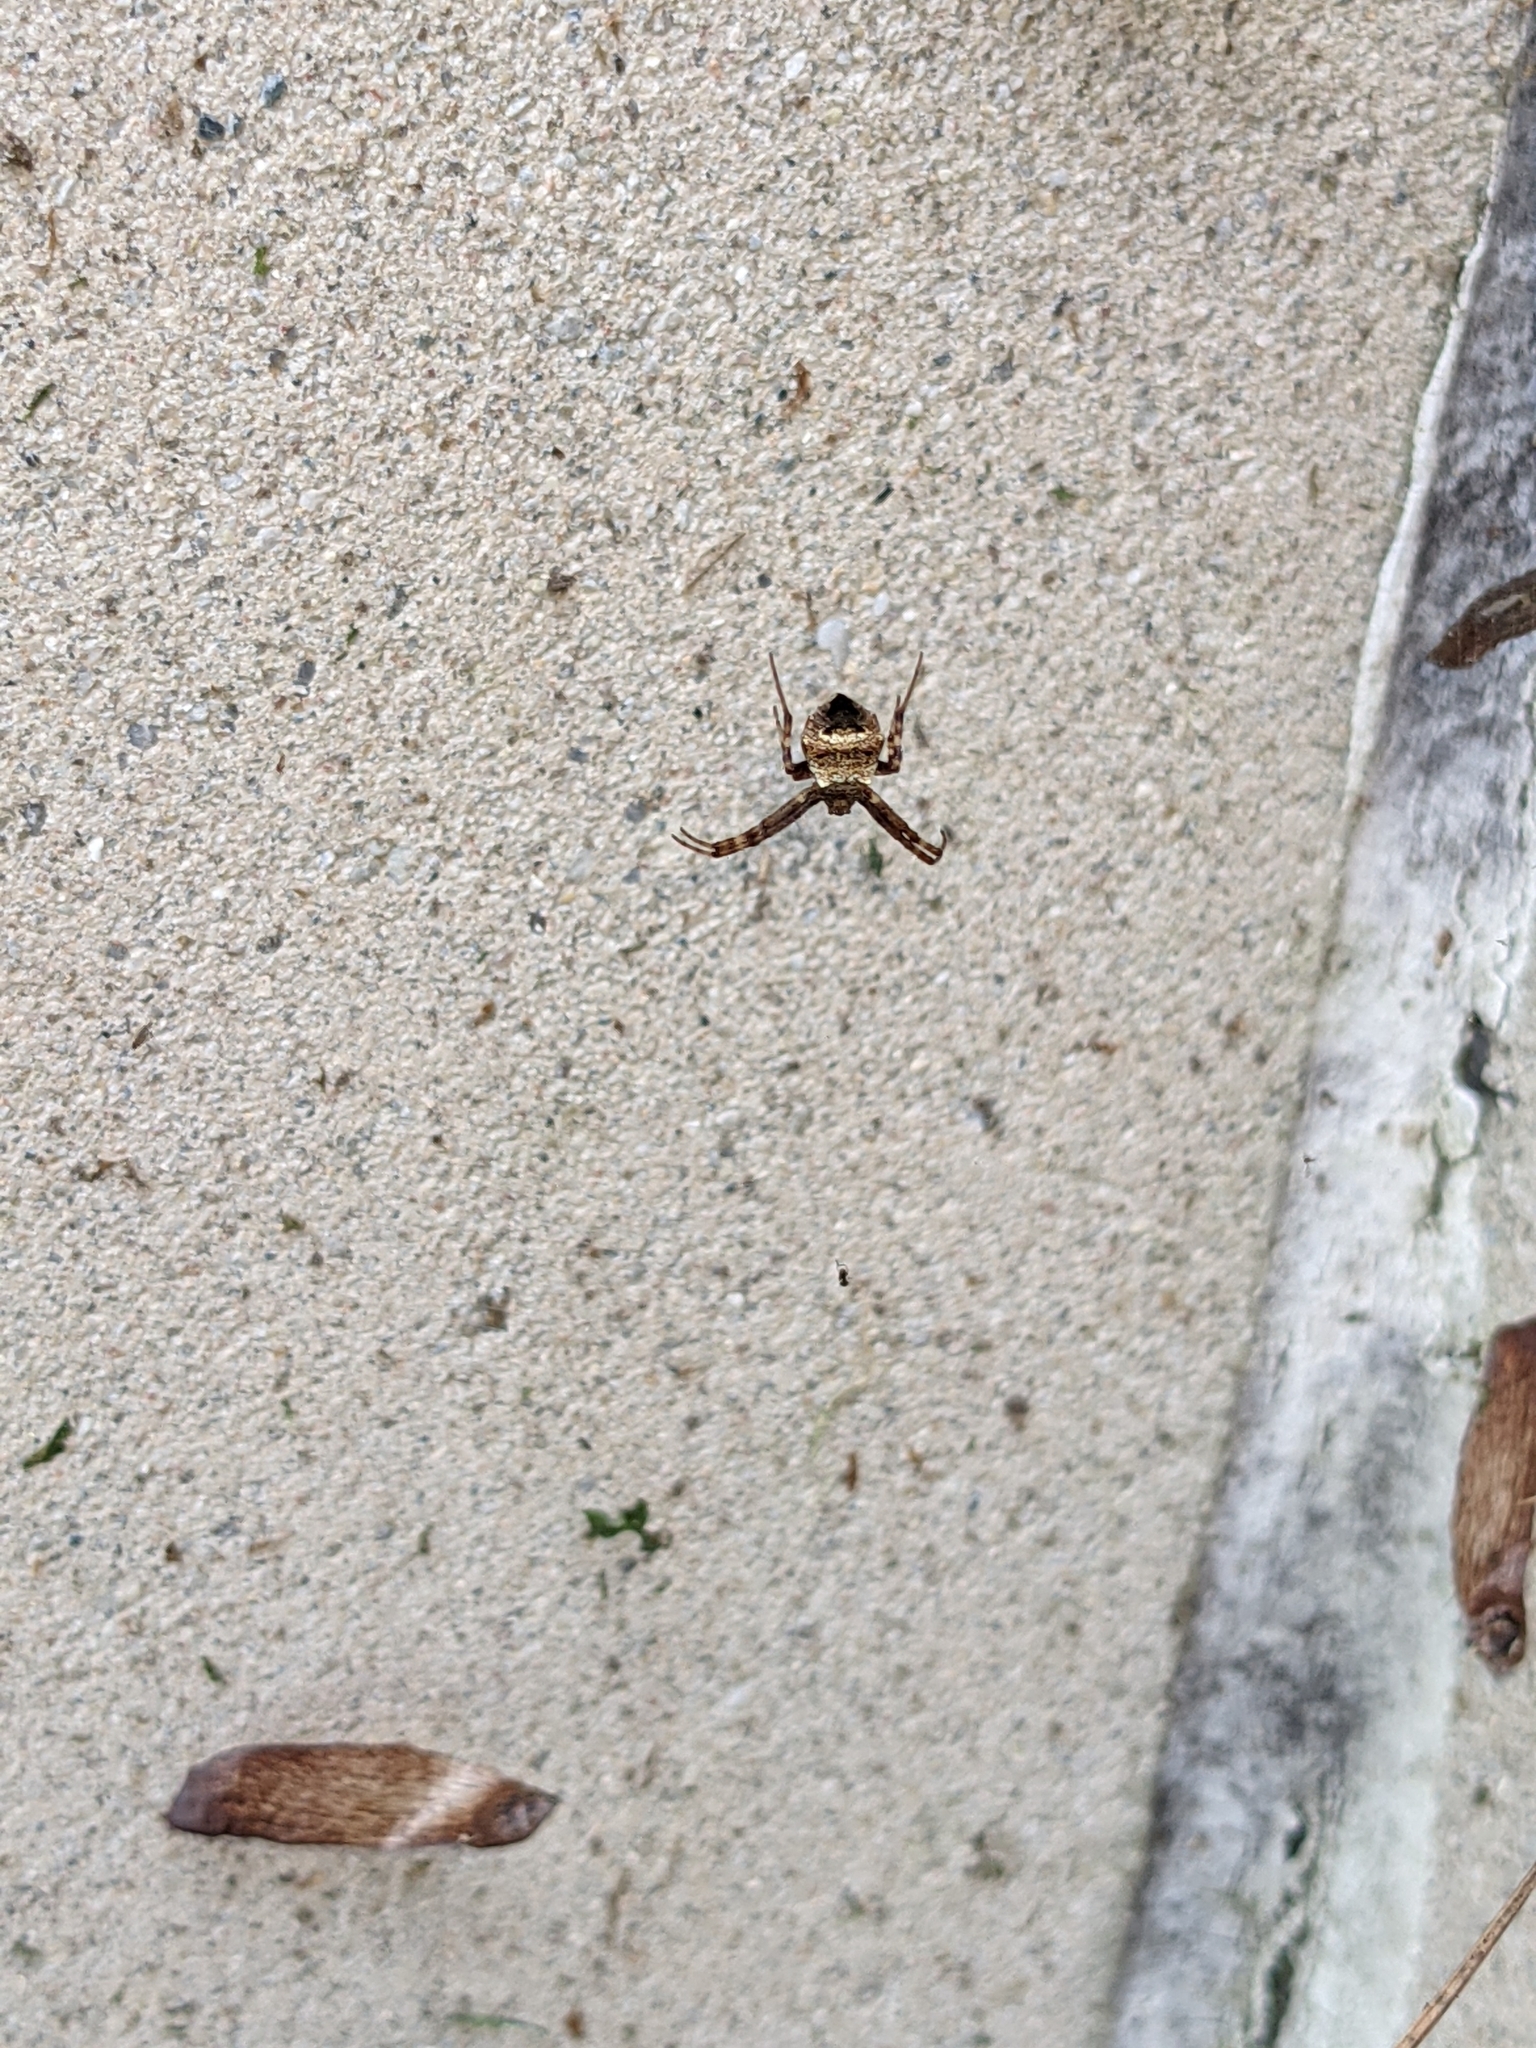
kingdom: Animalia
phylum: Arthropoda
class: Arachnida
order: Araneae
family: Araneidae
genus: Gea
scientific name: Gea heptagon
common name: Orb weavers
